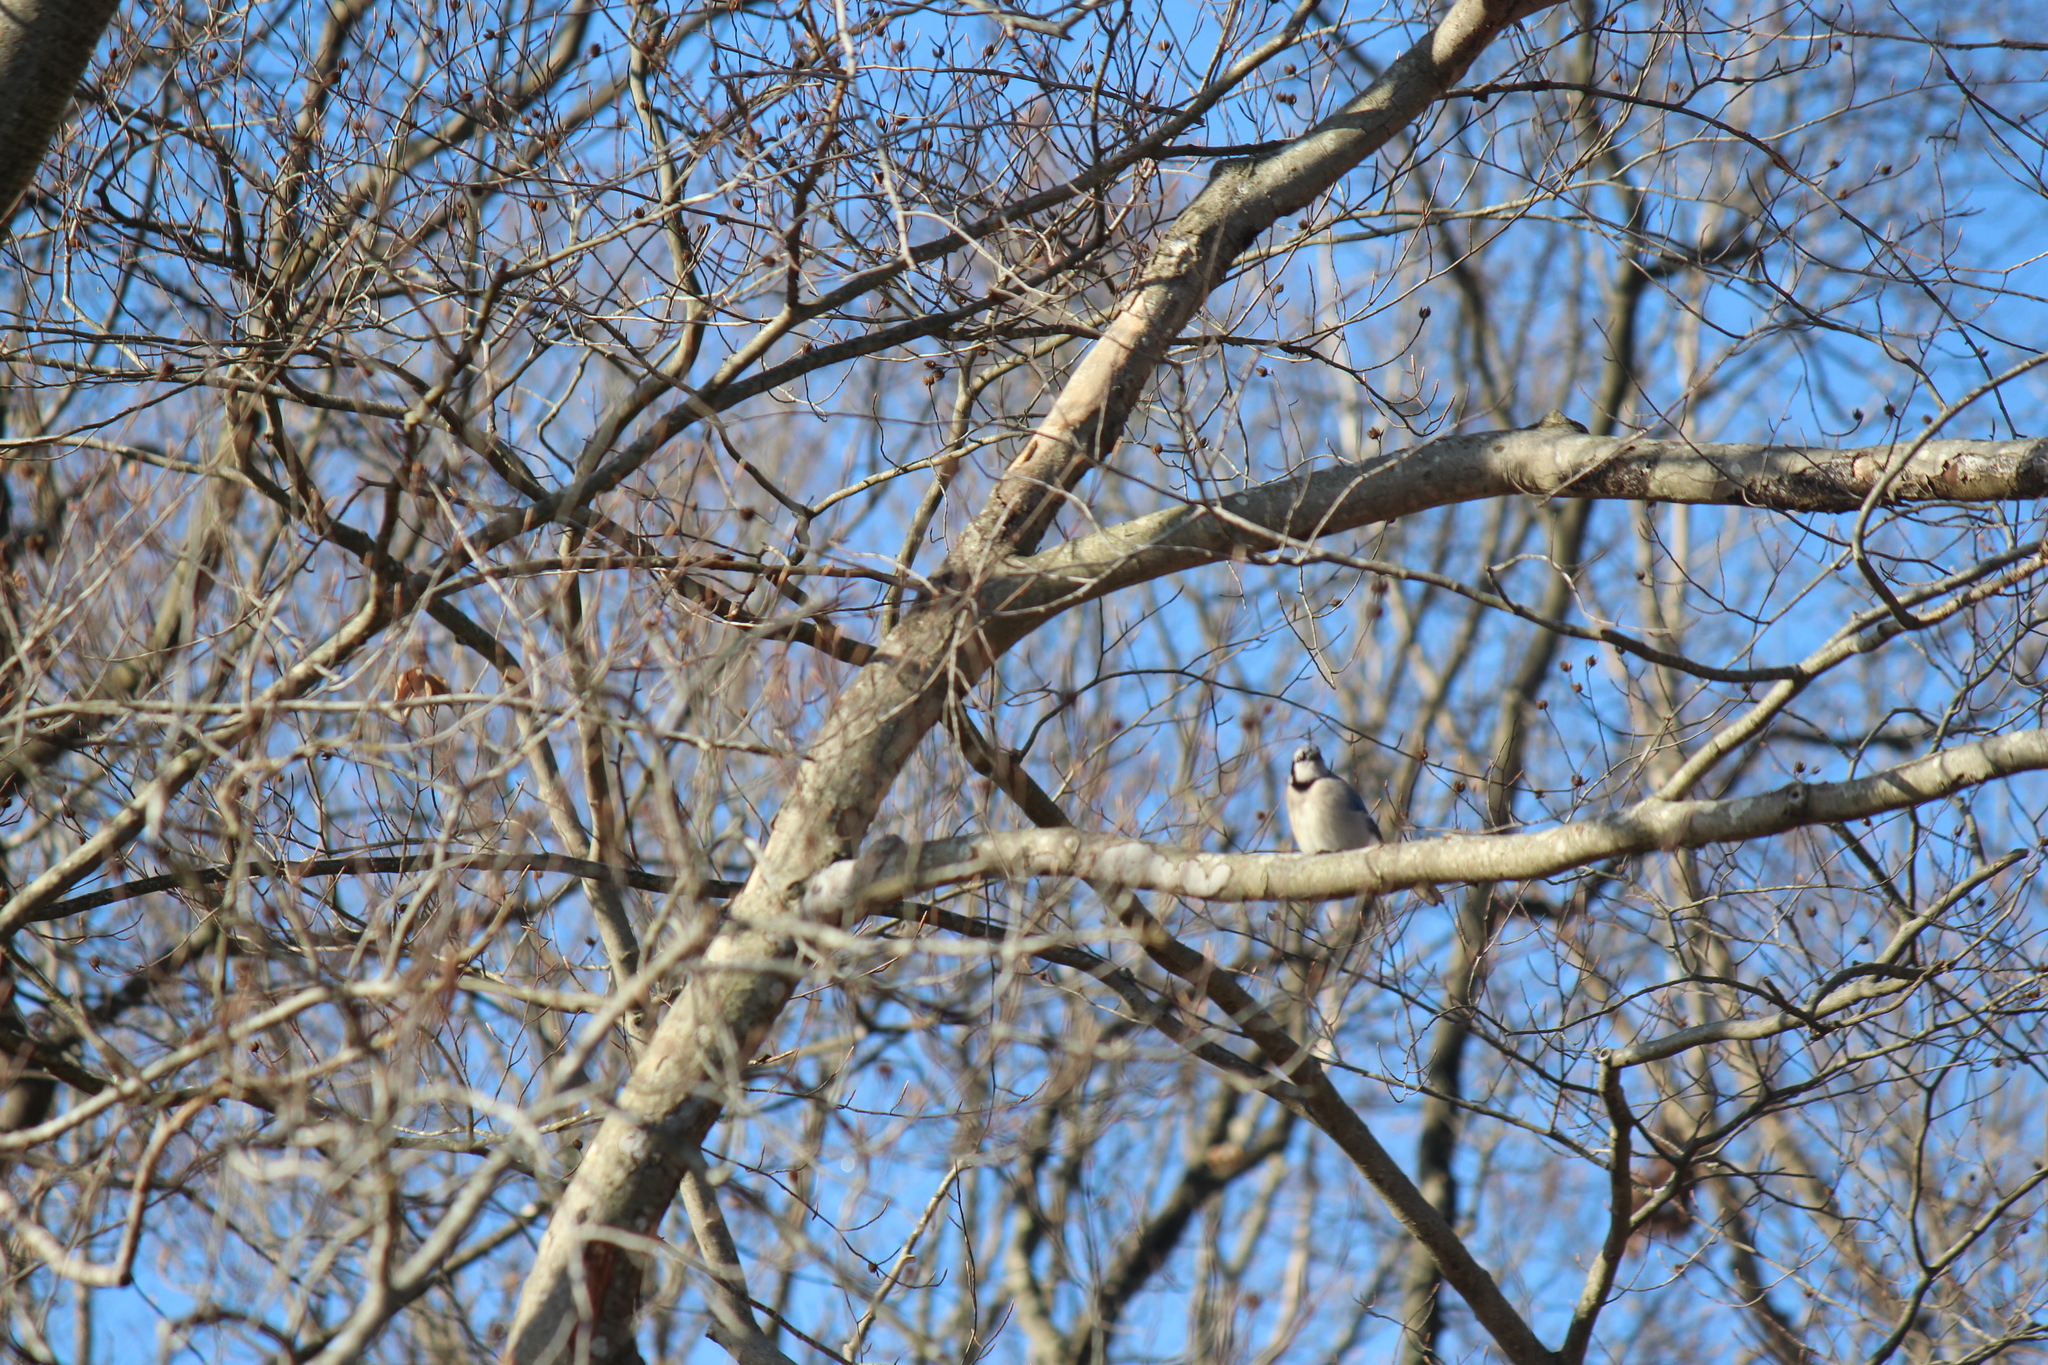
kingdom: Animalia
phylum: Chordata
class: Aves
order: Passeriformes
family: Corvidae
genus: Cyanocitta
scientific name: Cyanocitta cristata
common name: Blue jay
